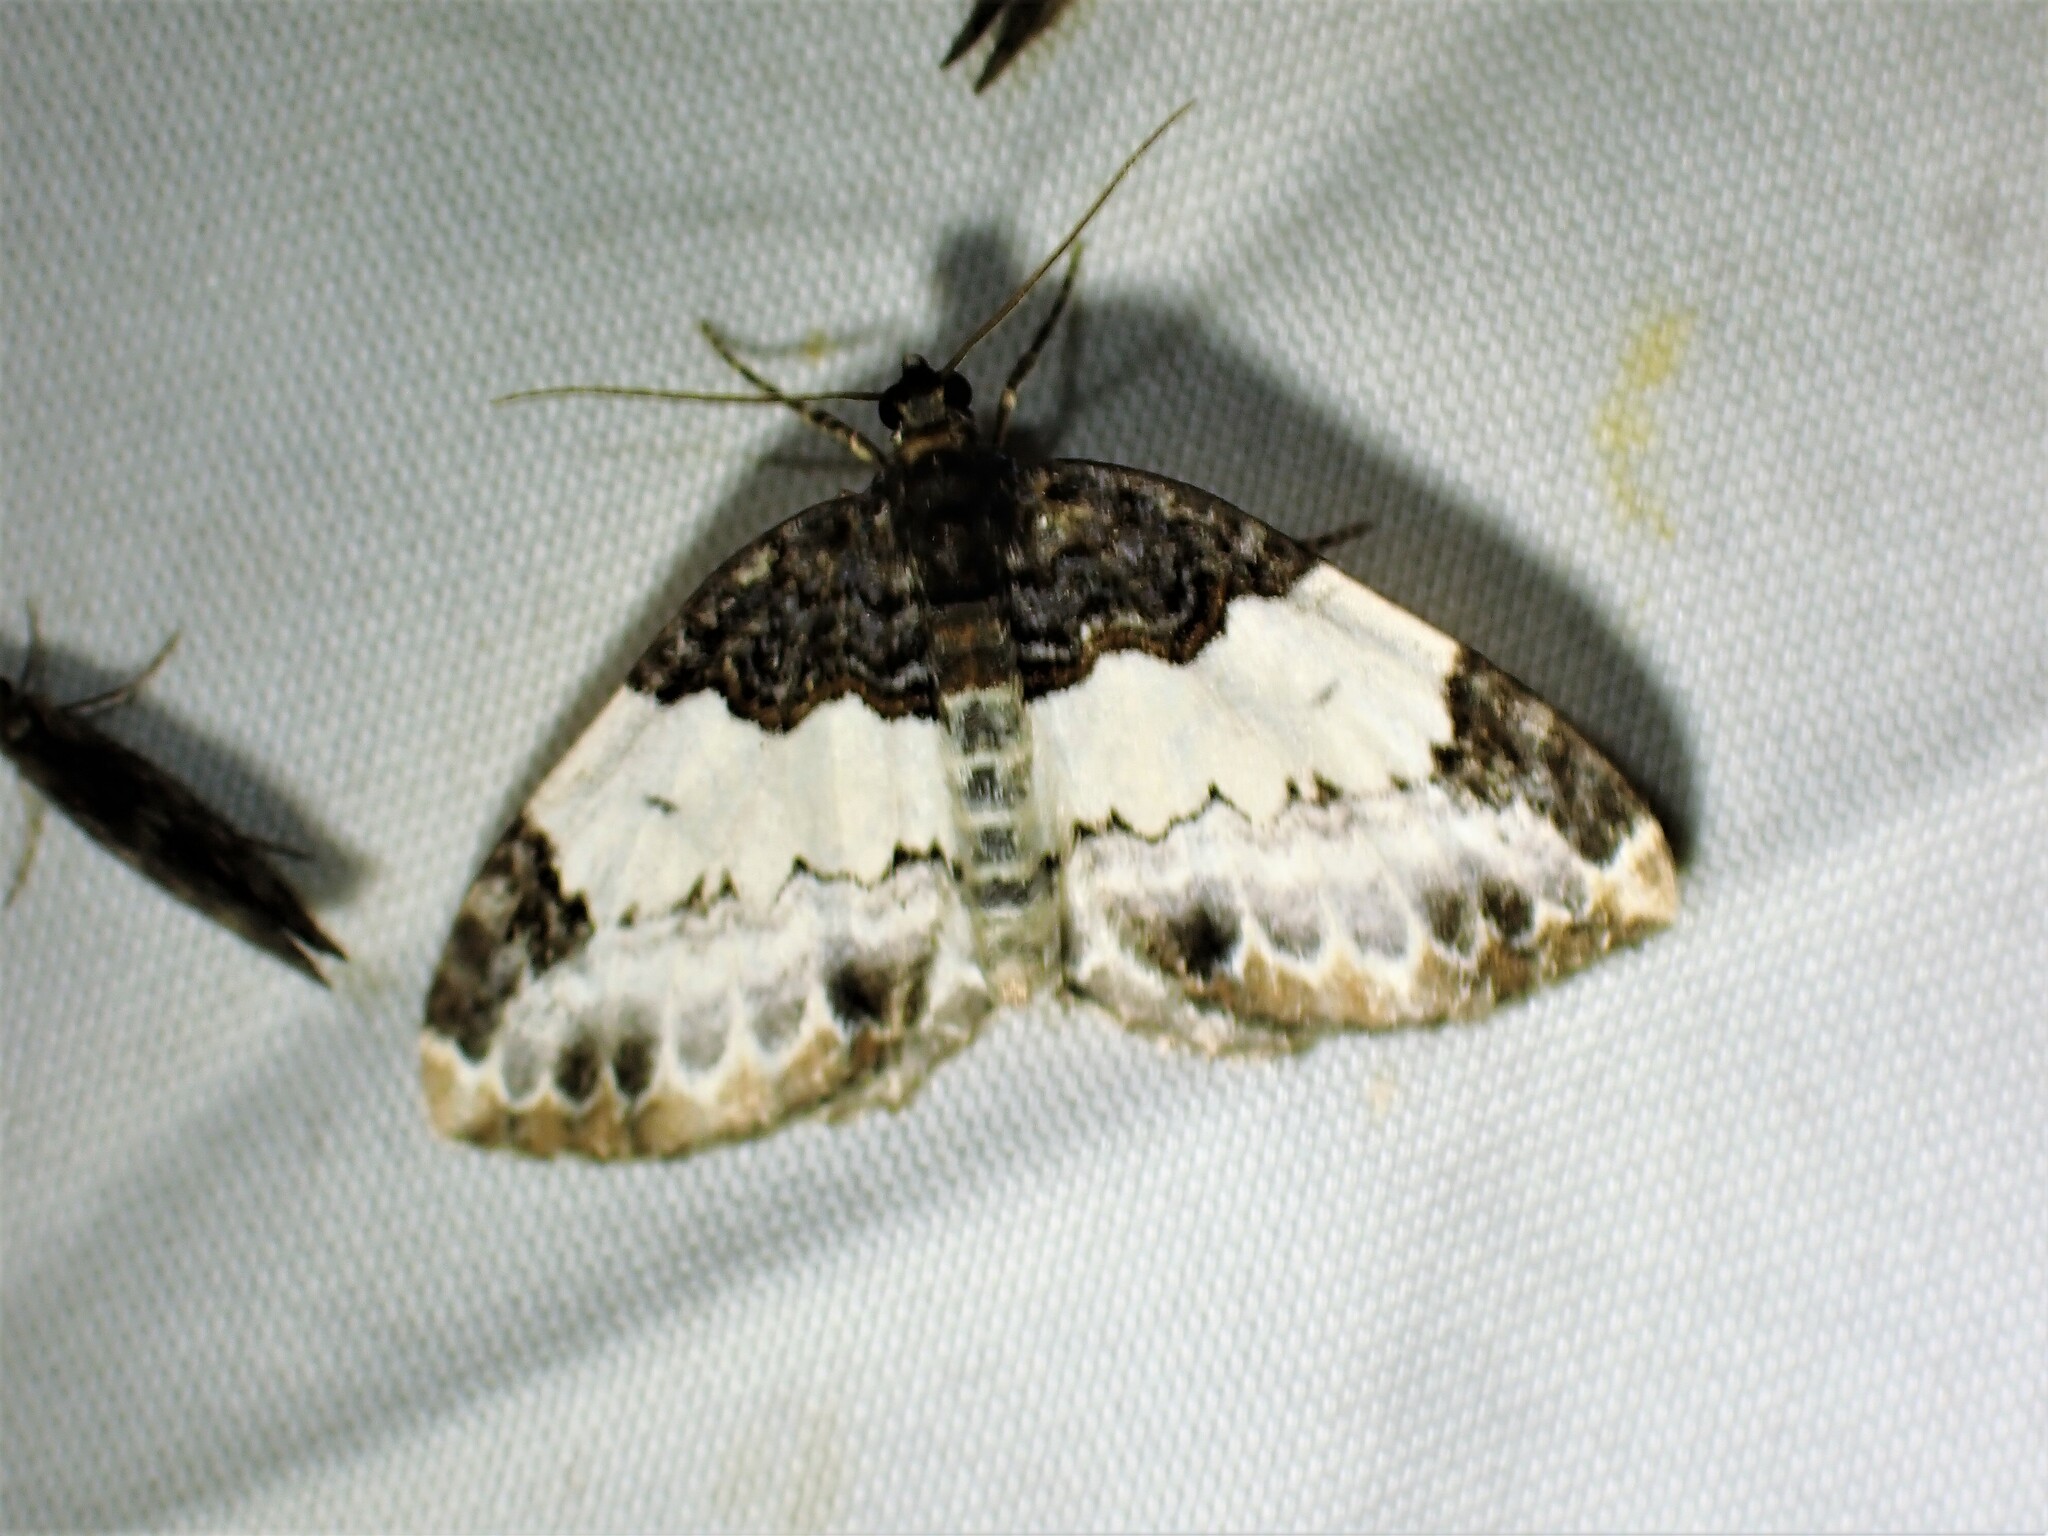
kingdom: Animalia
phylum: Arthropoda
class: Insecta
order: Lepidoptera
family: Geometridae
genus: Mesoleuca
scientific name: Mesoleuca ruficillata
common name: White-ribboned carpet moth
